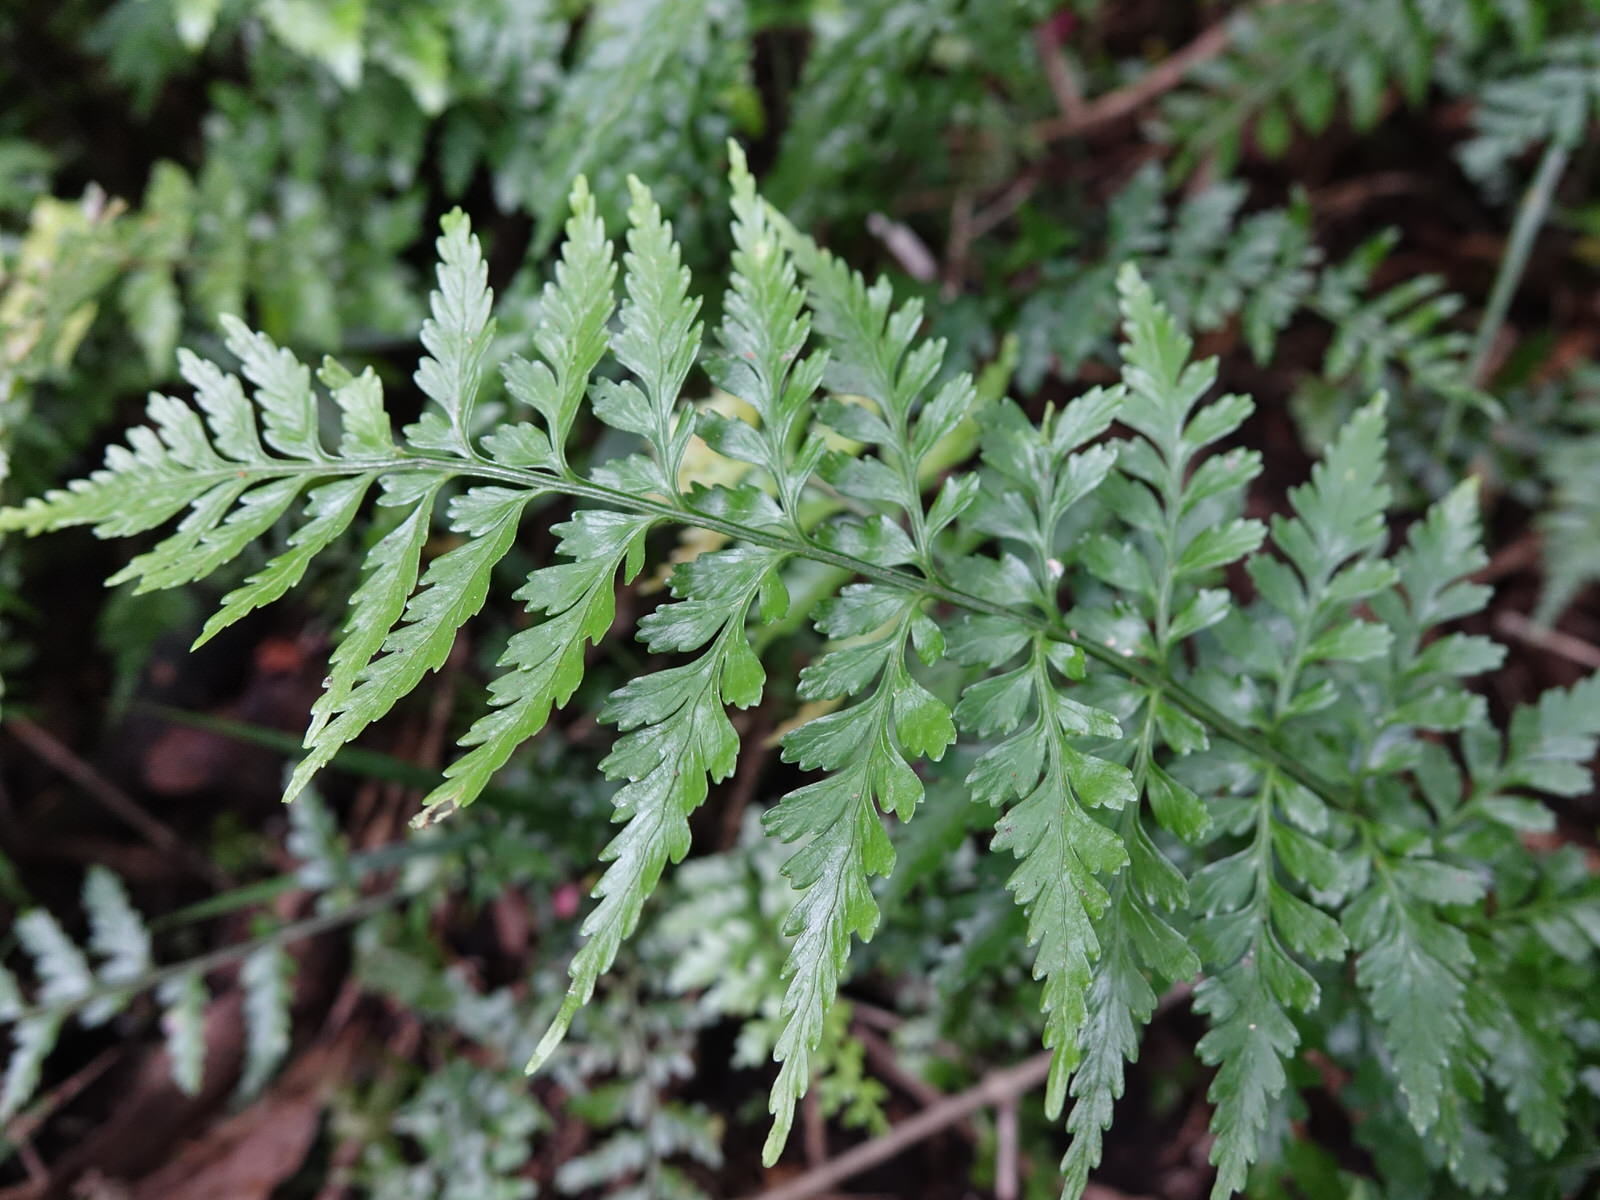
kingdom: Plantae
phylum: Tracheophyta
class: Polypodiopsida
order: Polypodiales
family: Aspleniaceae
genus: Asplenium
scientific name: Asplenium lamprophyllum
